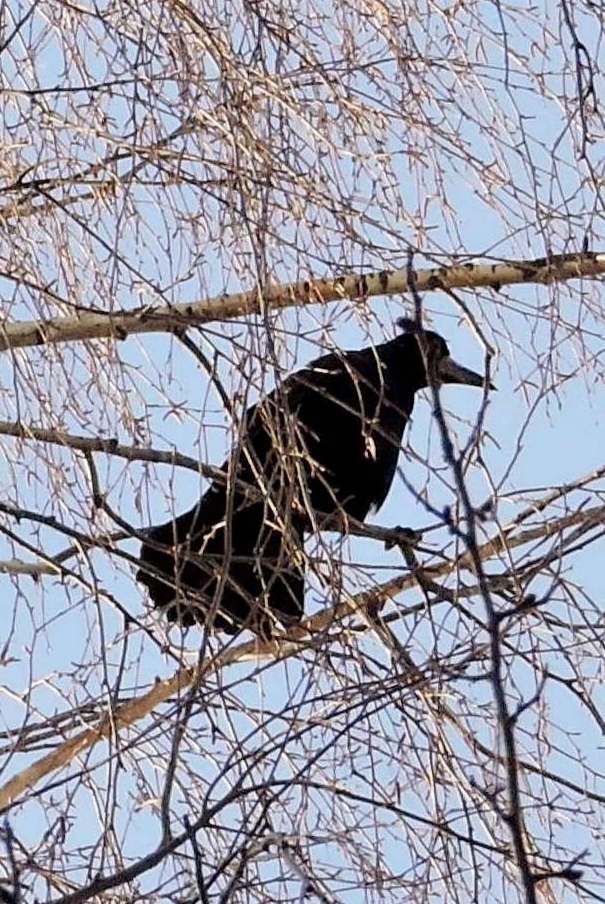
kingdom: Animalia
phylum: Chordata
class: Aves
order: Passeriformes
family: Corvidae
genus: Corvus
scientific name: Corvus frugilegus
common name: Rook
